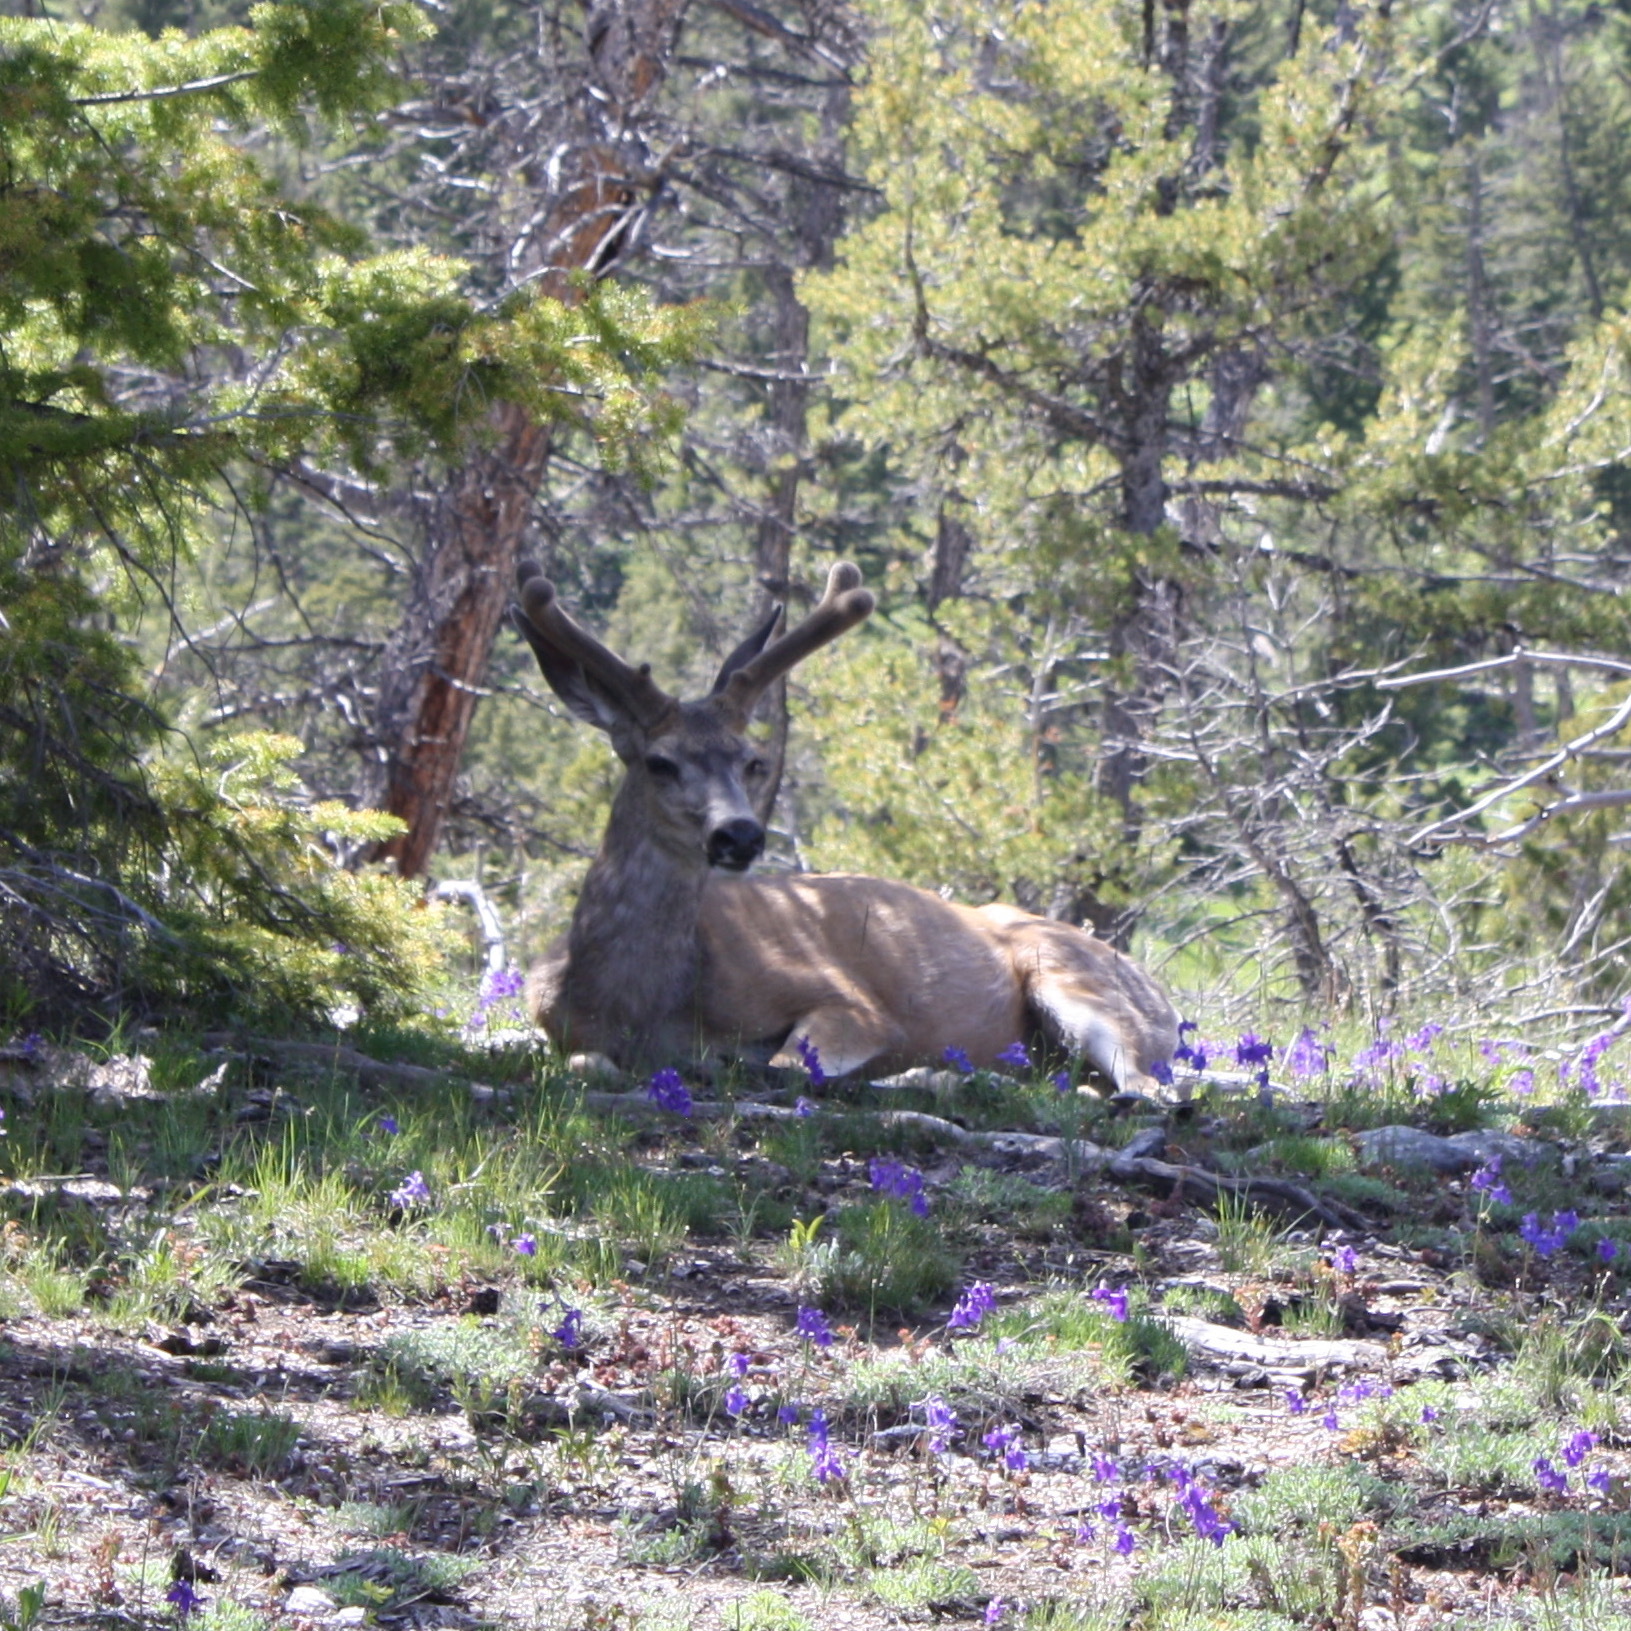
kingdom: Animalia
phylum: Chordata
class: Mammalia
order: Artiodactyla
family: Cervidae
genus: Odocoileus
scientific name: Odocoileus hemionus
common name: Mule deer
